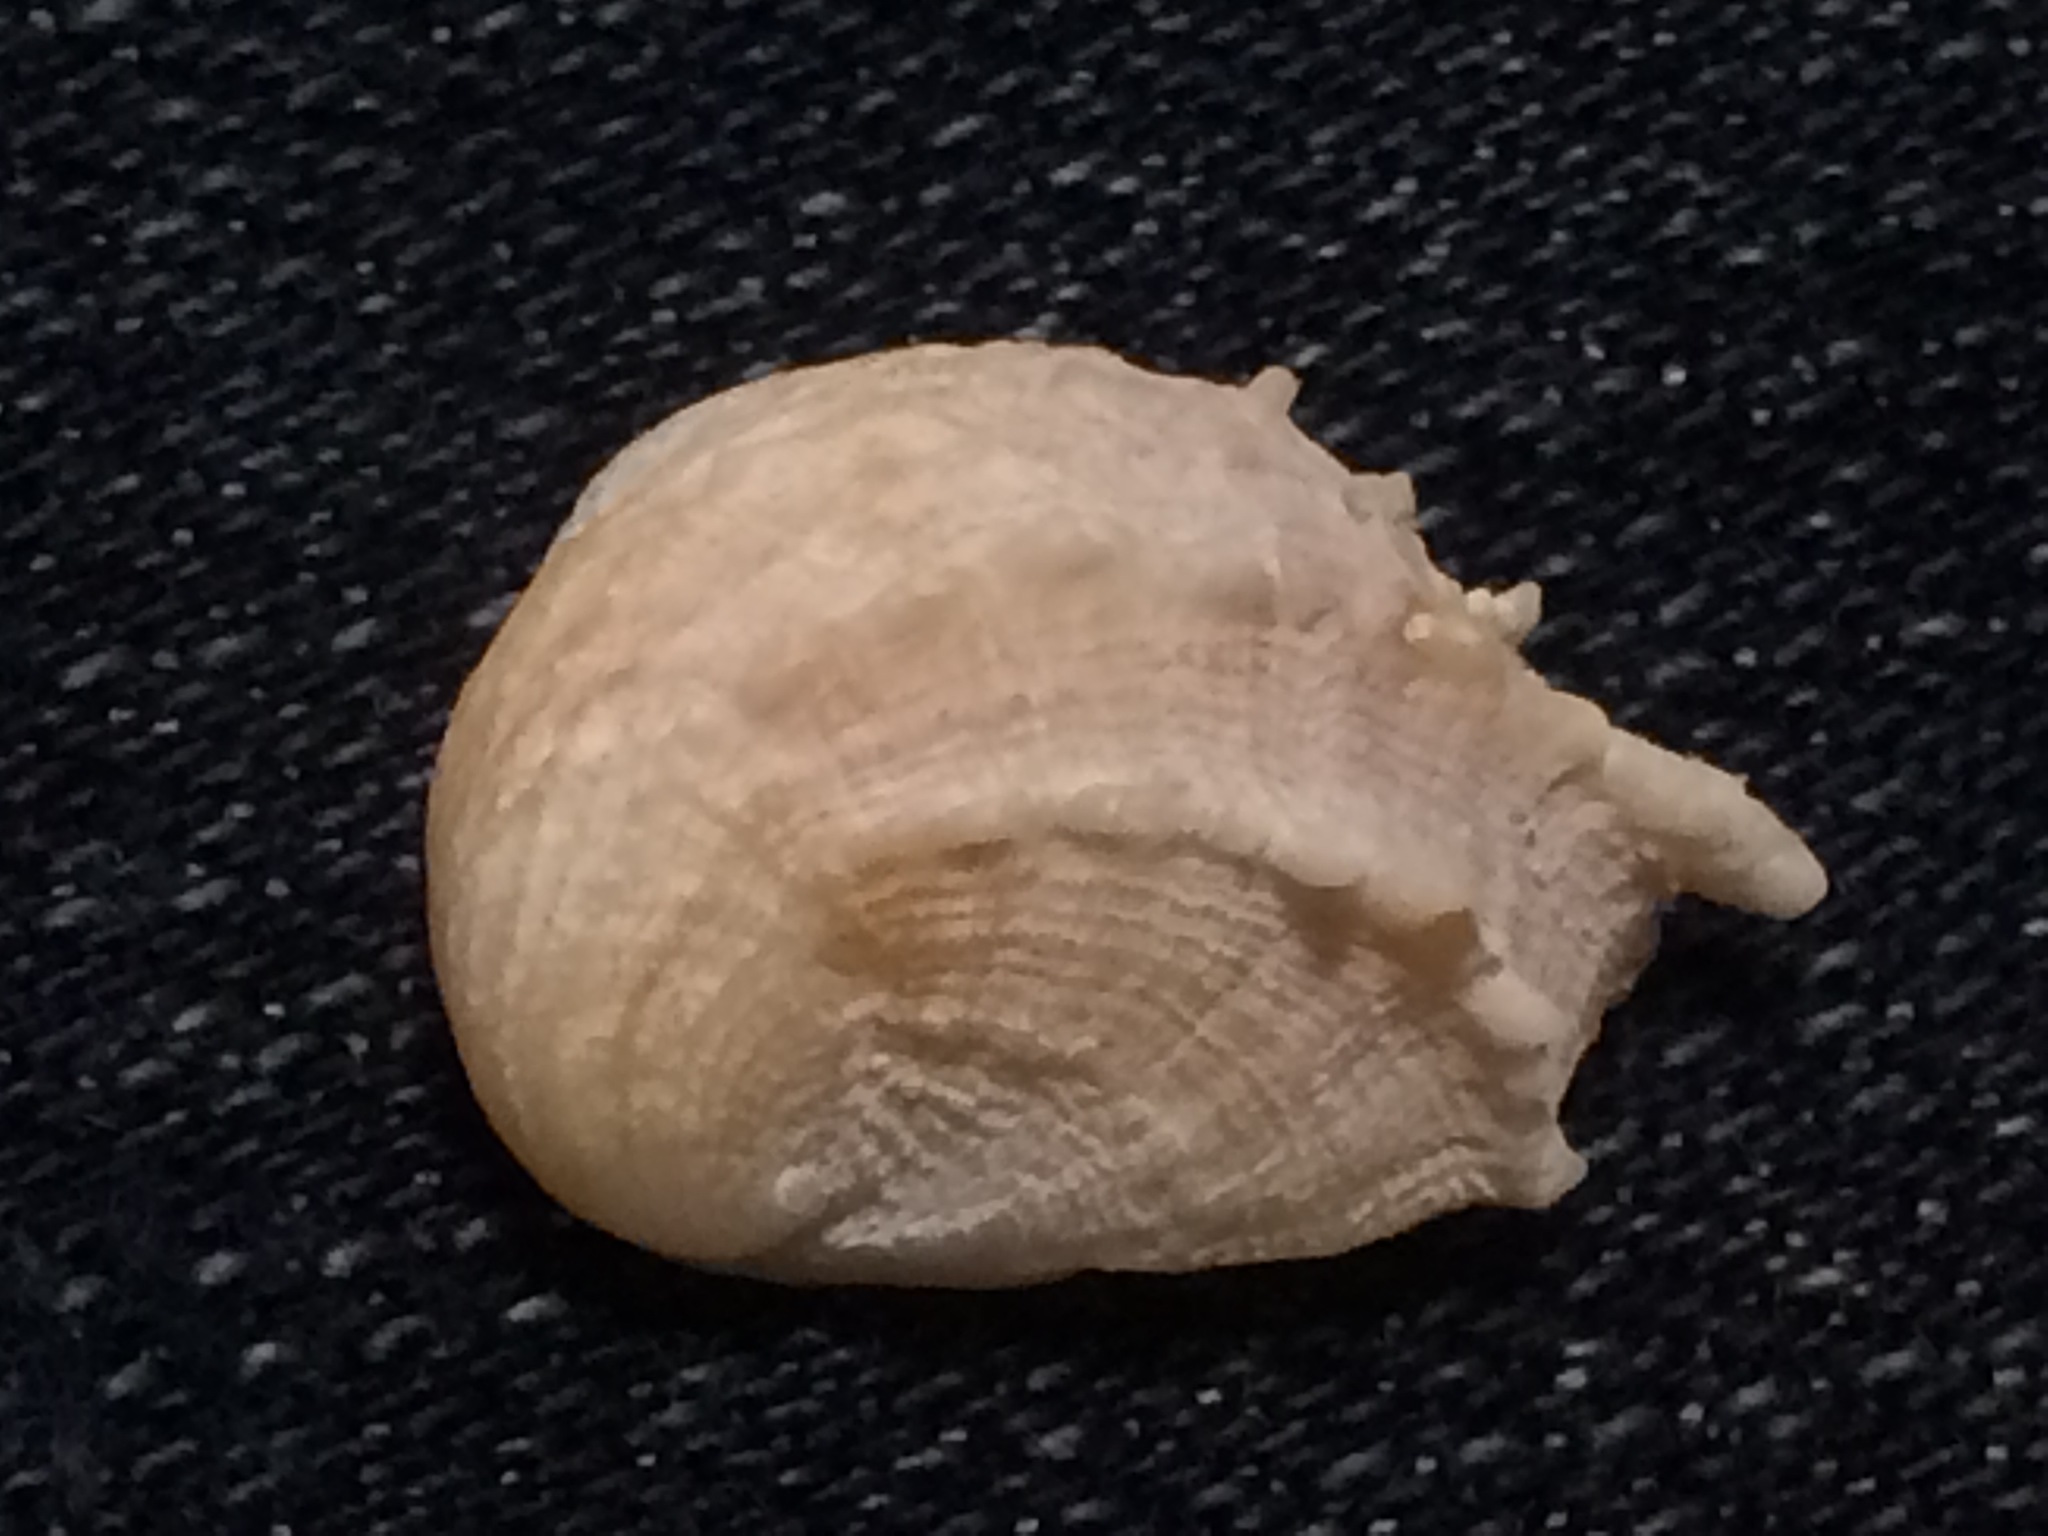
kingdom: Animalia
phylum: Mollusca
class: Gastropoda
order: Littorinimorpha
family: Calyptraeidae
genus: Bostrycapulus
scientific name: Bostrycapulus aculeatus
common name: Spiny slippersnail
